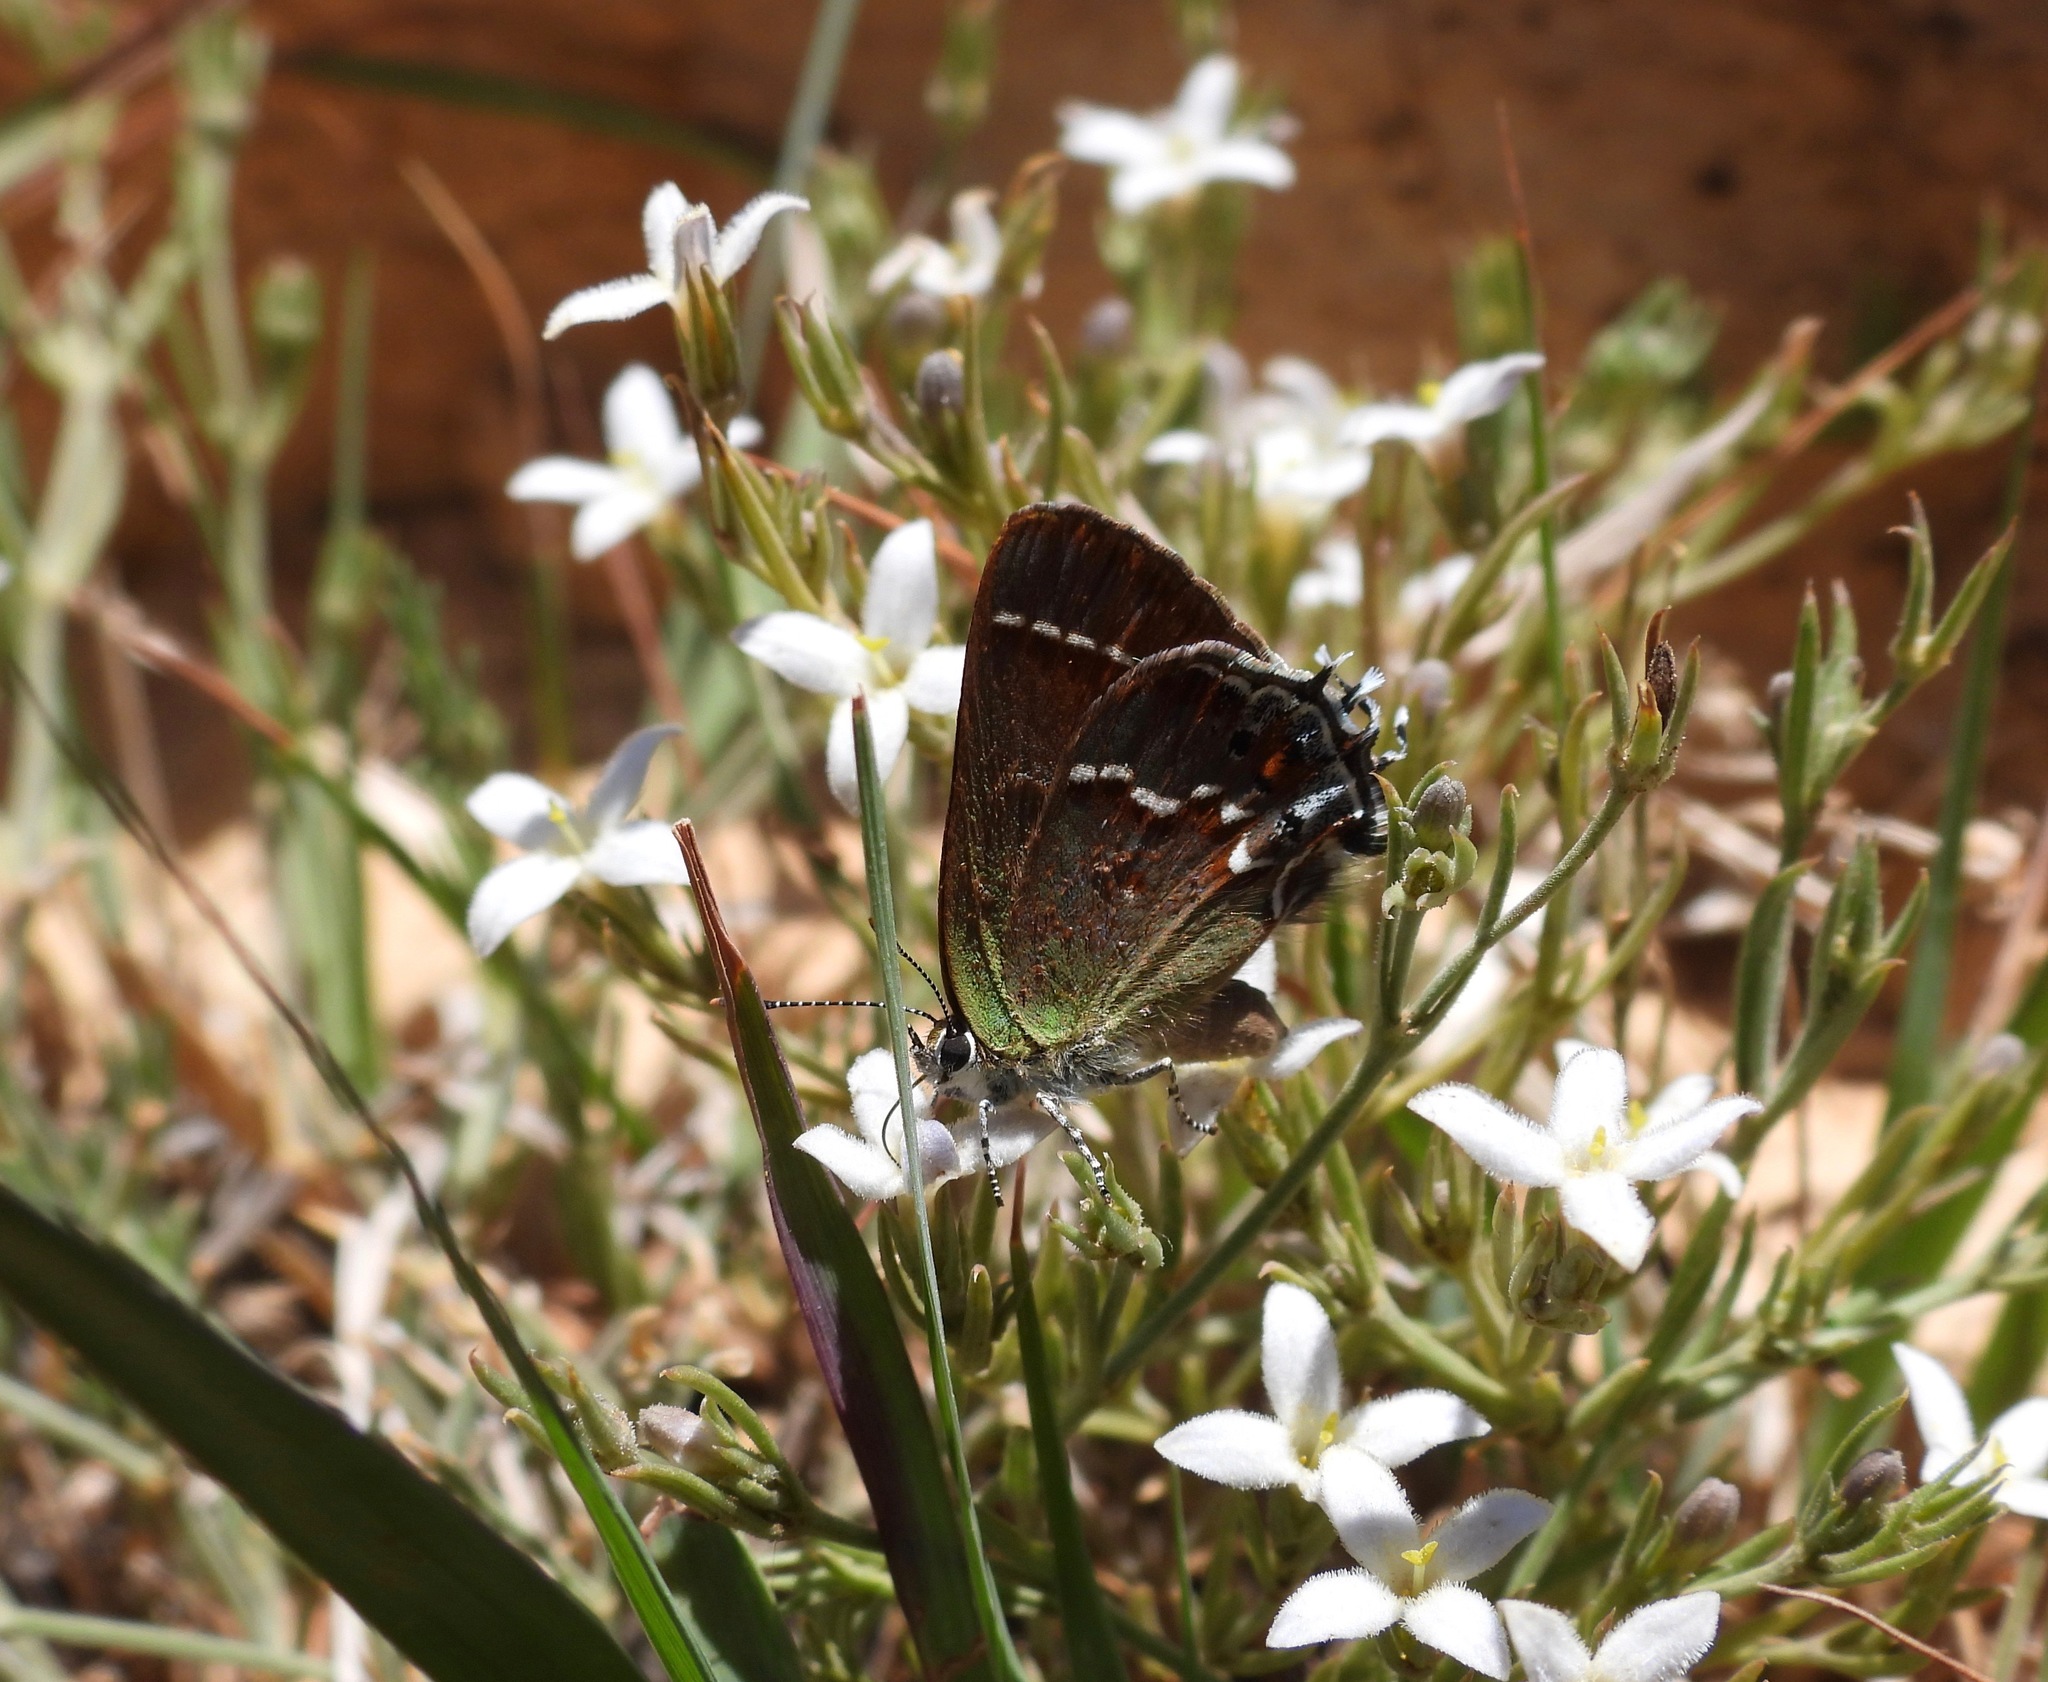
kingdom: Animalia
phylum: Arthropoda
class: Insecta
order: Lepidoptera
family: Lycaenidae
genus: Mitoura
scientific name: Mitoura gryneus
